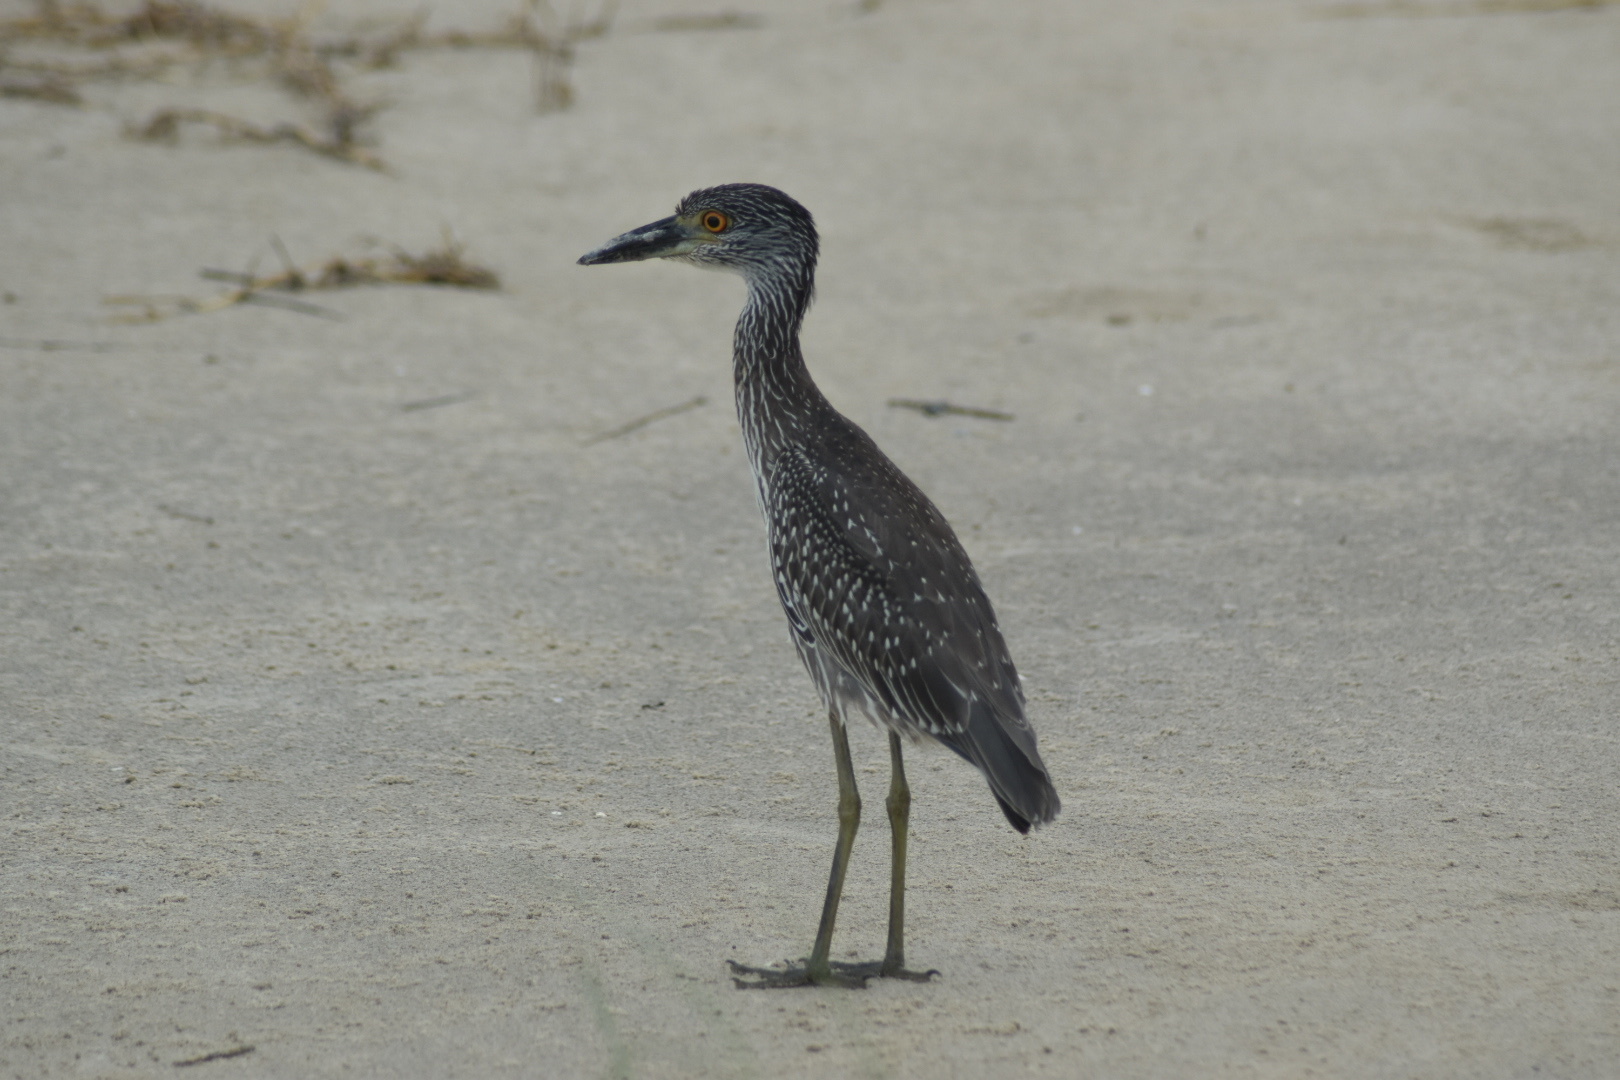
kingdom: Animalia
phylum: Chordata
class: Aves
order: Pelecaniformes
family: Ardeidae
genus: Nyctanassa
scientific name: Nyctanassa violacea
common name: Yellow-crowned night heron
